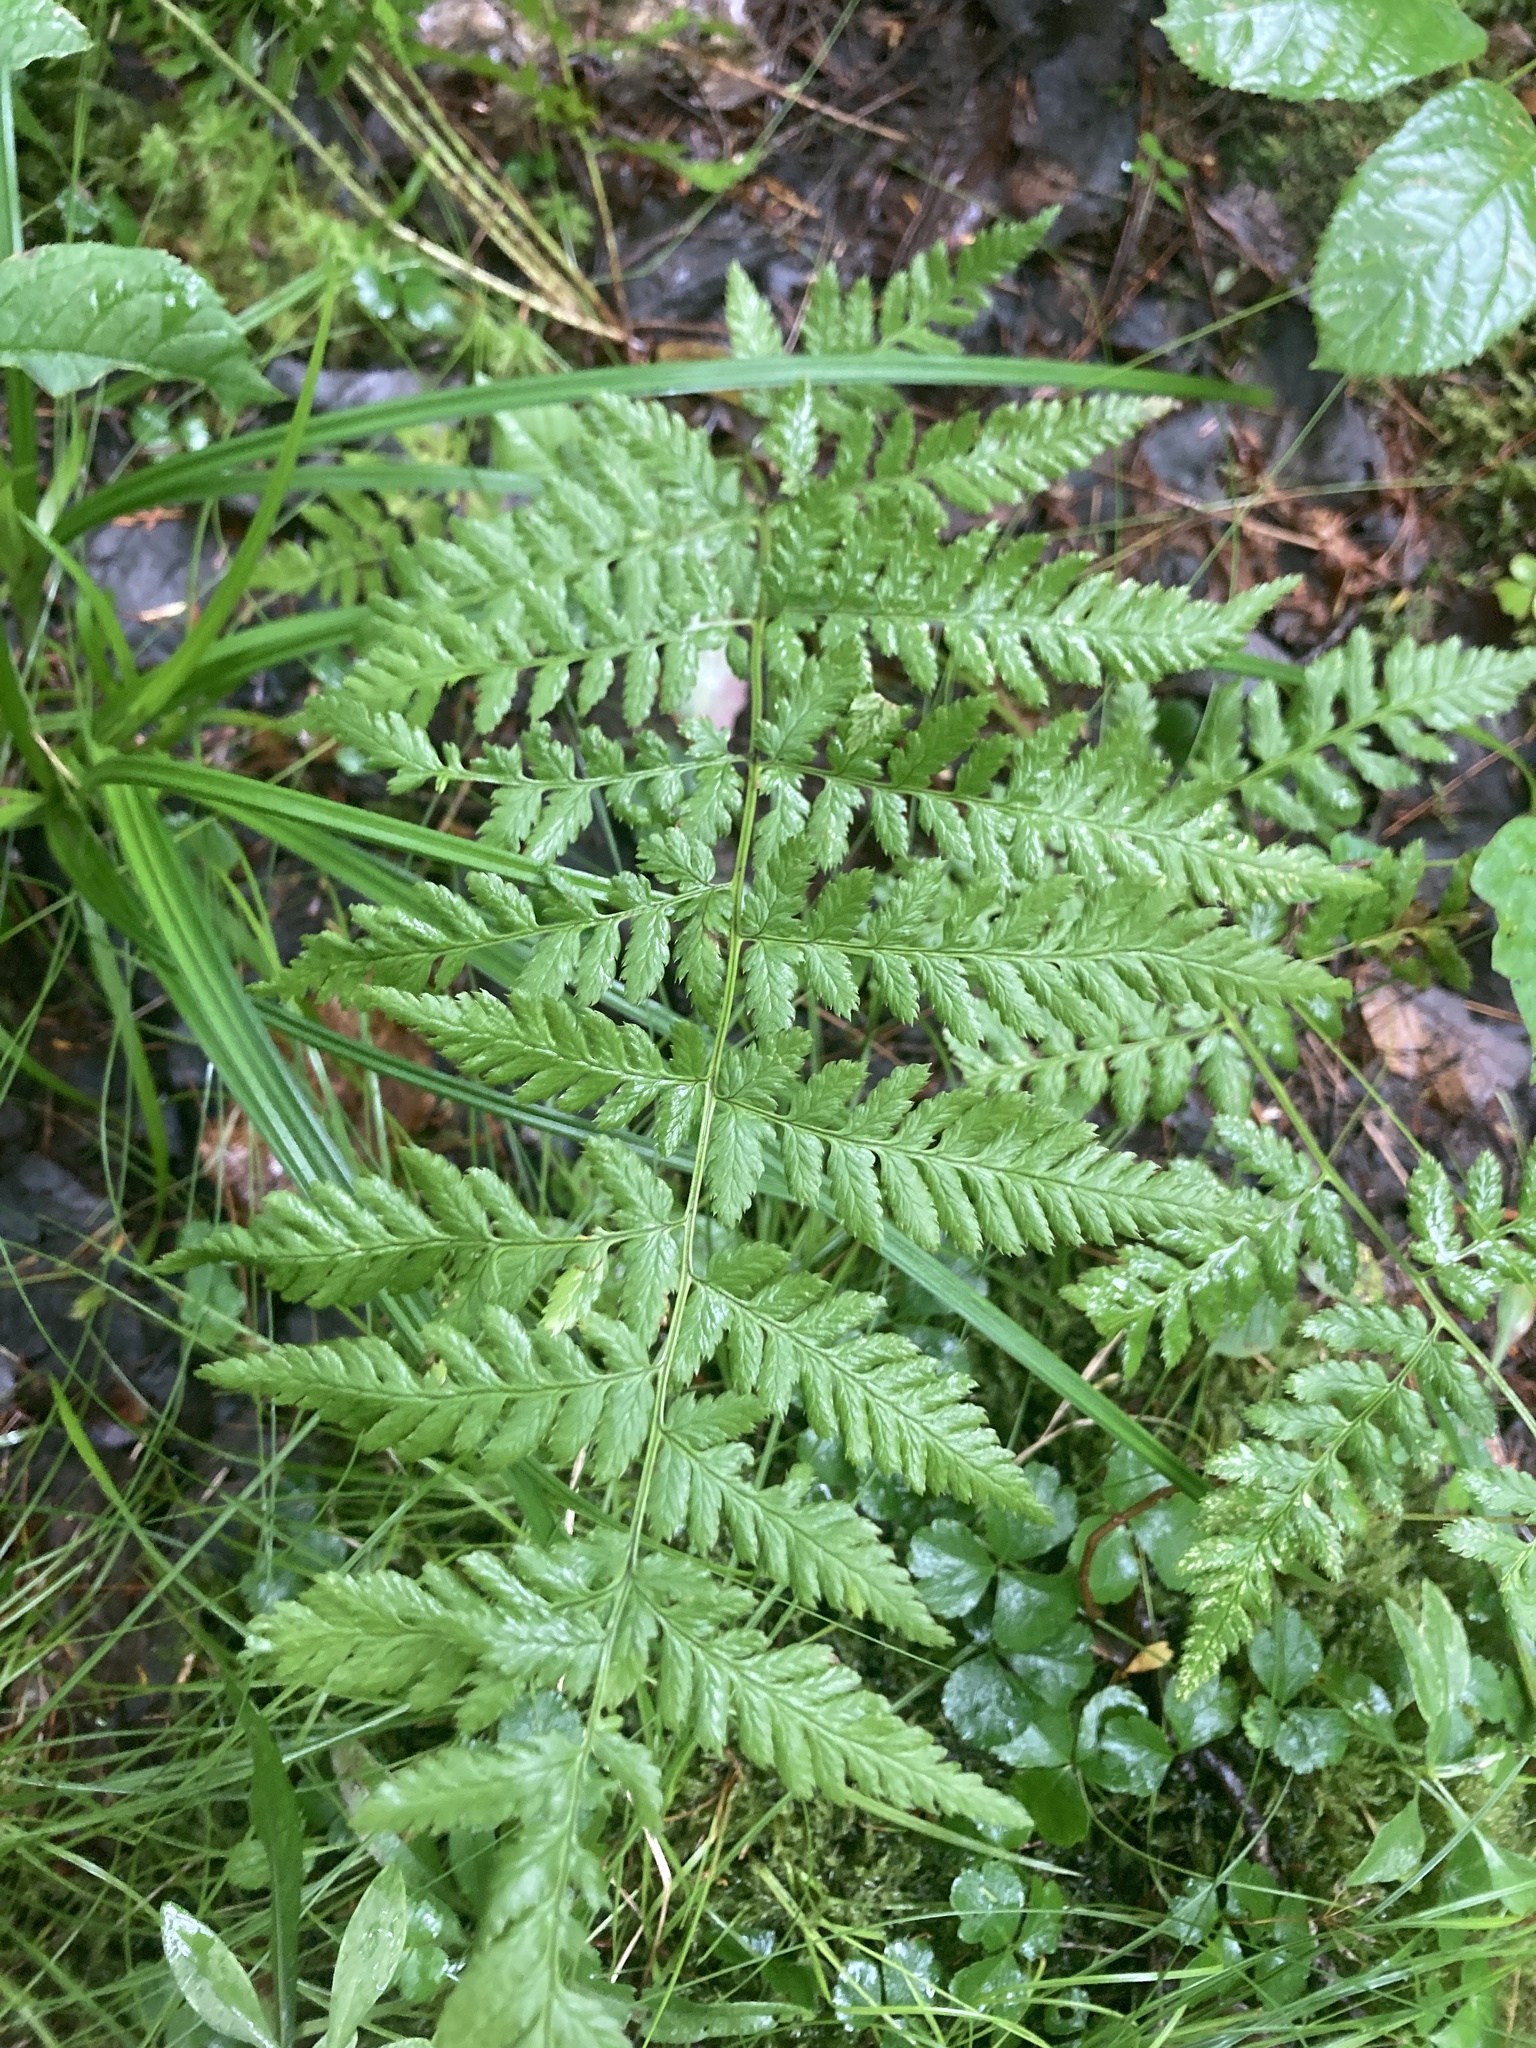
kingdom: Plantae
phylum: Tracheophyta
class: Polypodiopsida
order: Polypodiales
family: Dryopteridaceae
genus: Dryopteris
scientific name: Dryopteris carthusiana
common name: Narrow buckler-fern
